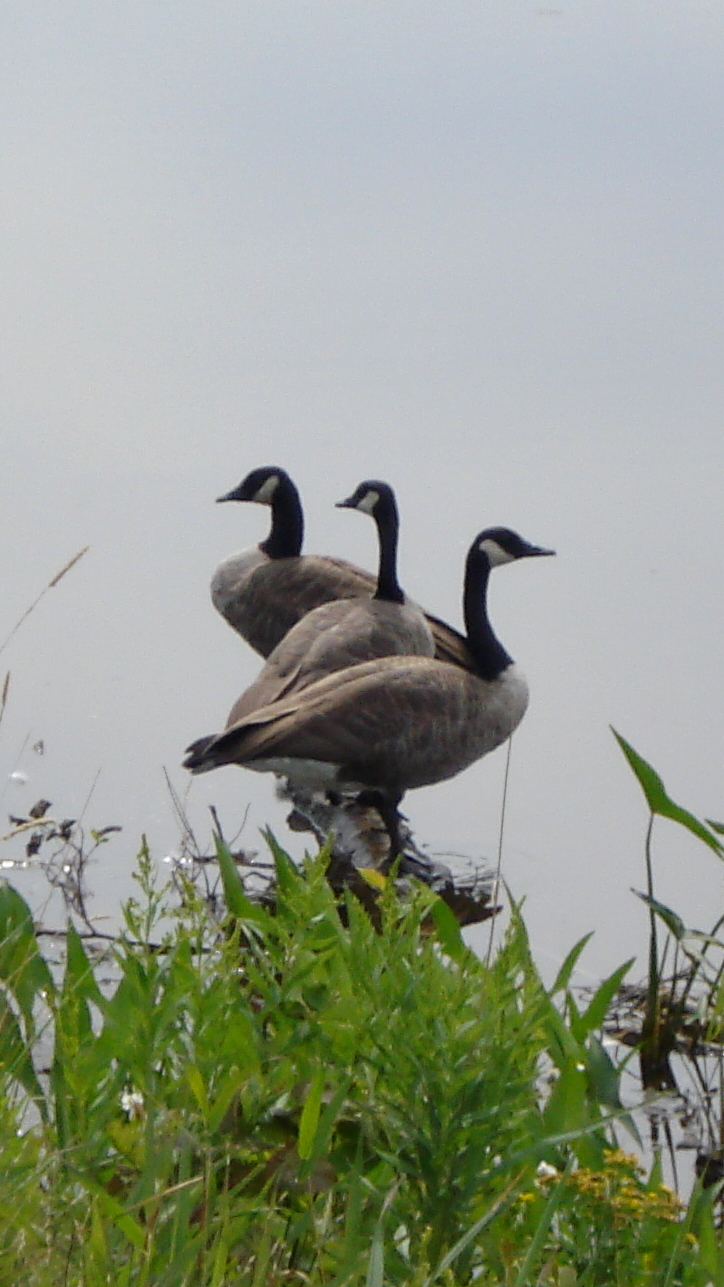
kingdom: Animalia
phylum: Chordata
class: Aves
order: Anseriformes
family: Anatidae
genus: Branta
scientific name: Branta canadensis
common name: Canada goose
